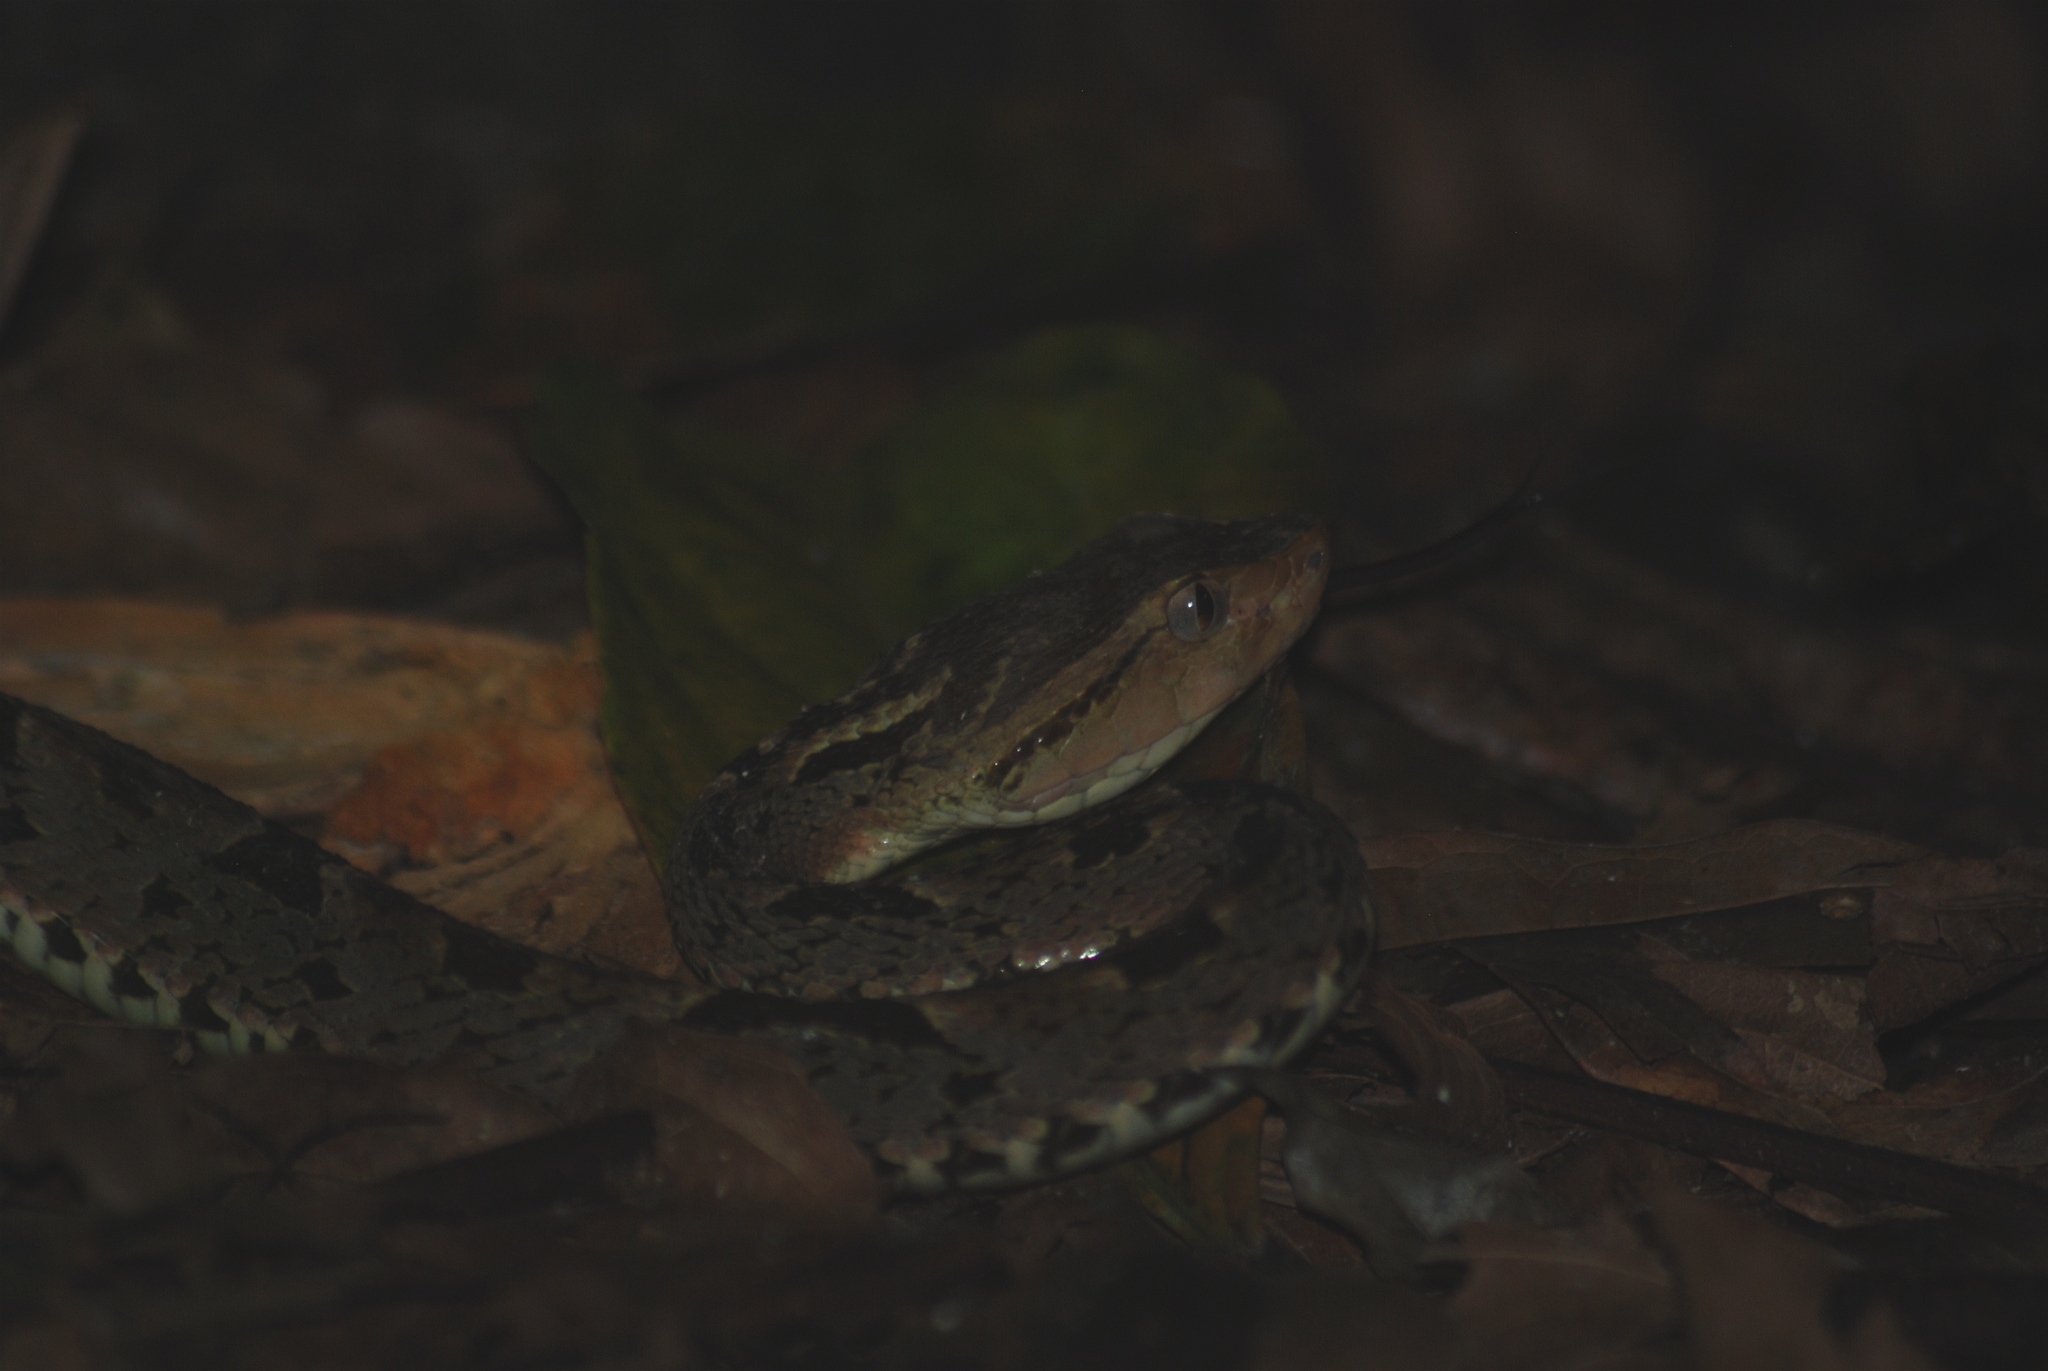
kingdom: Animalia
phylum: Chordata
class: Squamata
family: Viperidae
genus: Bothrops
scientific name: Bothrops asper
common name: Terciopelo
